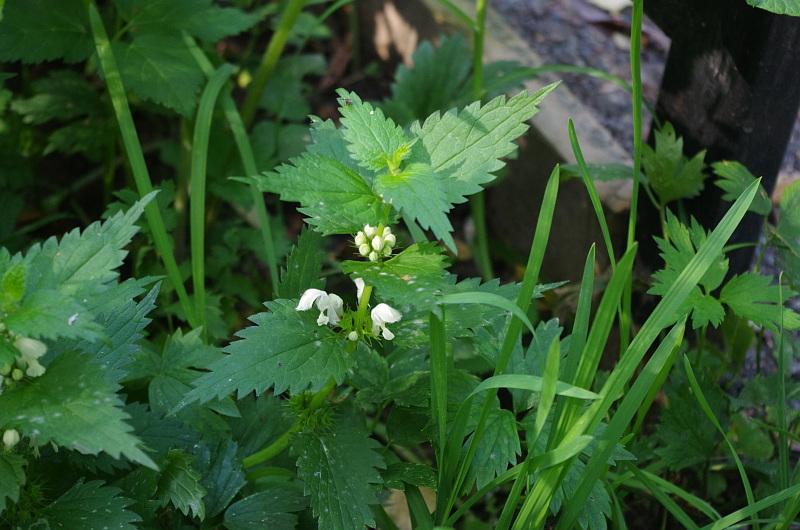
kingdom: Plantae
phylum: Tracheophyta
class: Magnoliopsida
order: Lamiales
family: Lamiaceae
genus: Lamium
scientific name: Lamium album
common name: White dead-nettle
